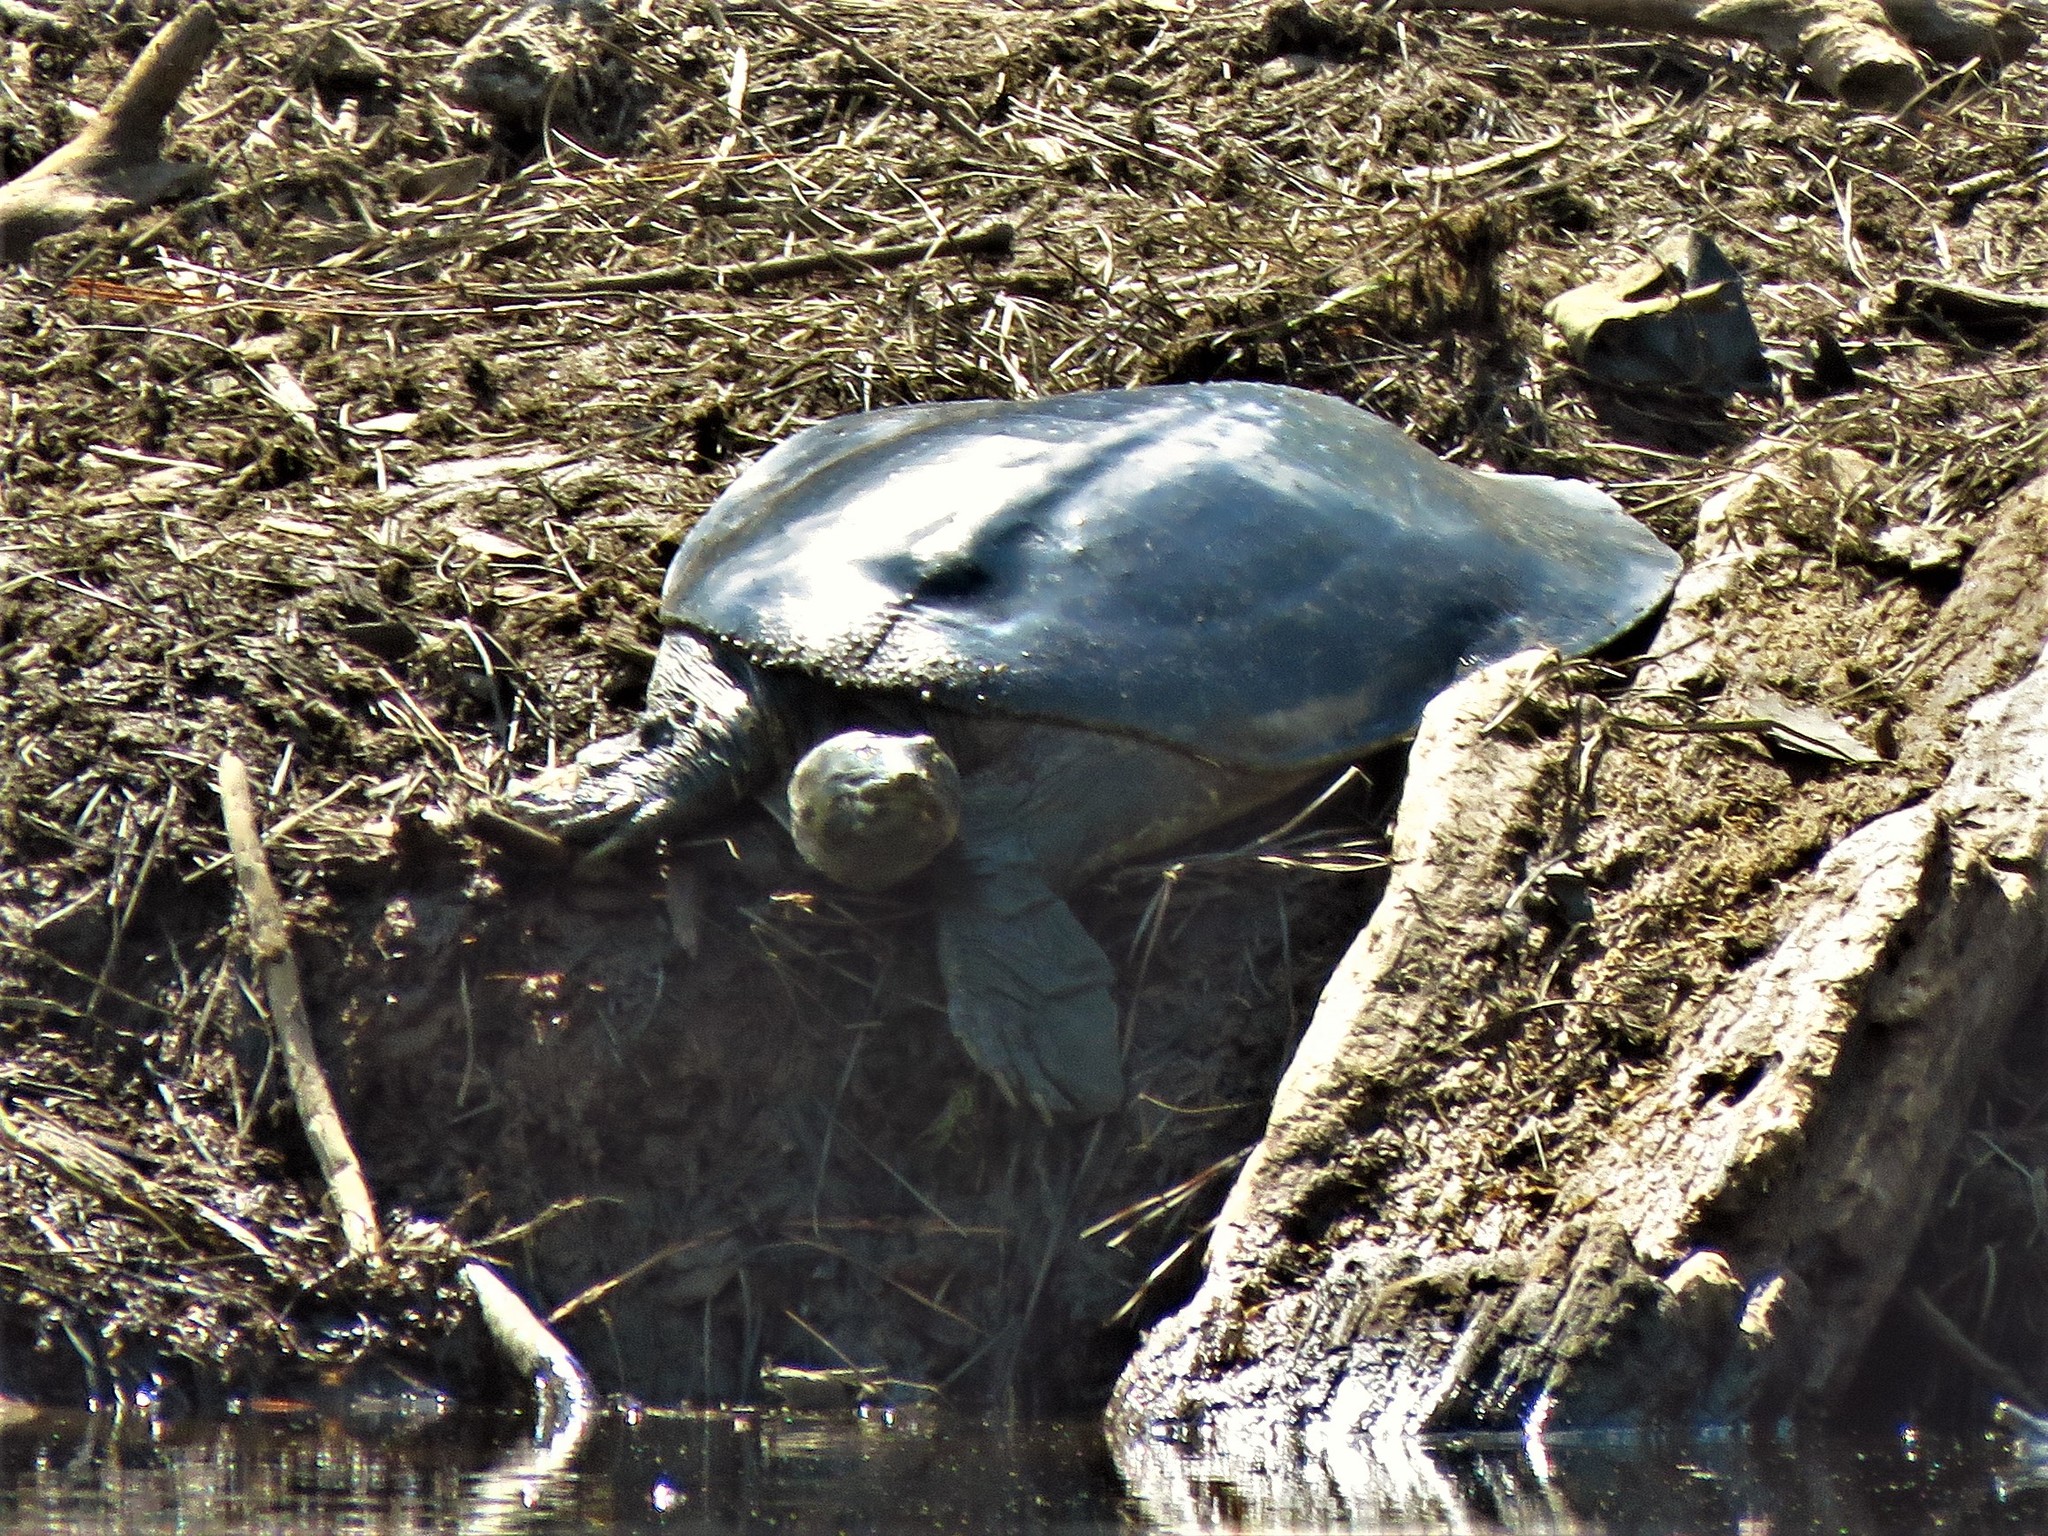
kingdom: Animalia
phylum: Chordata
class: Testudines
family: Trionychidae
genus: Apalone
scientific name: Apalone spinifera
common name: Spiny softshell turtle
